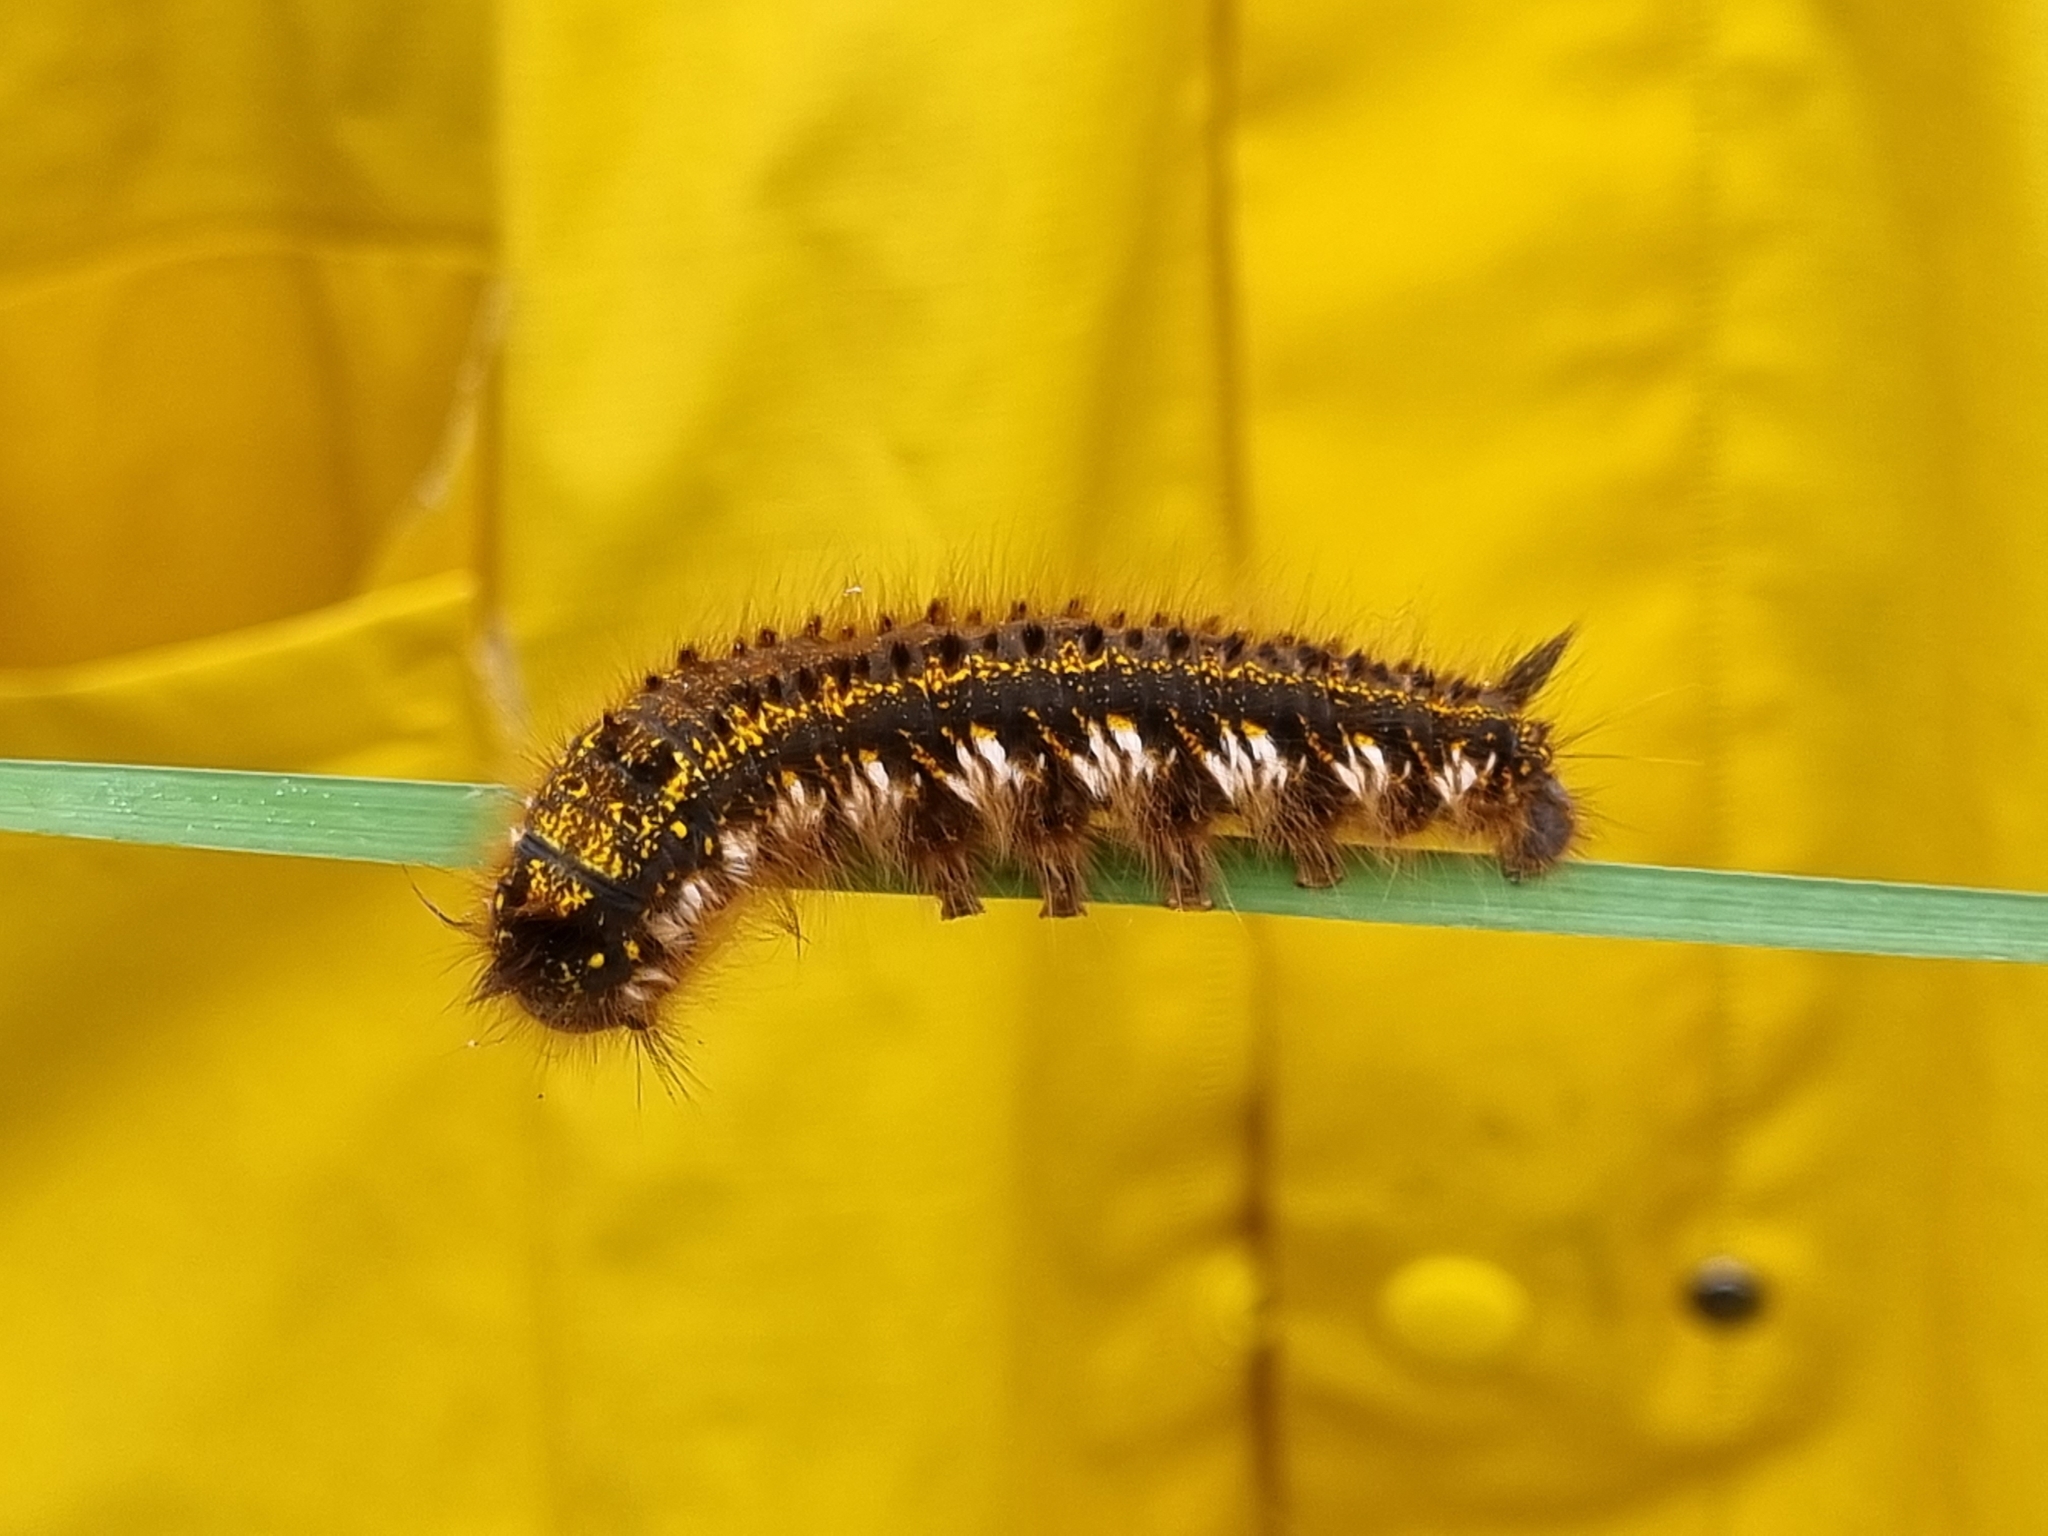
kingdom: Animalia
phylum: Arthropoda
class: Insecta
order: Lepidoptera
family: Lasiocampidae
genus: Euthrix
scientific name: Euthrix potatoria
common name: Drinker
